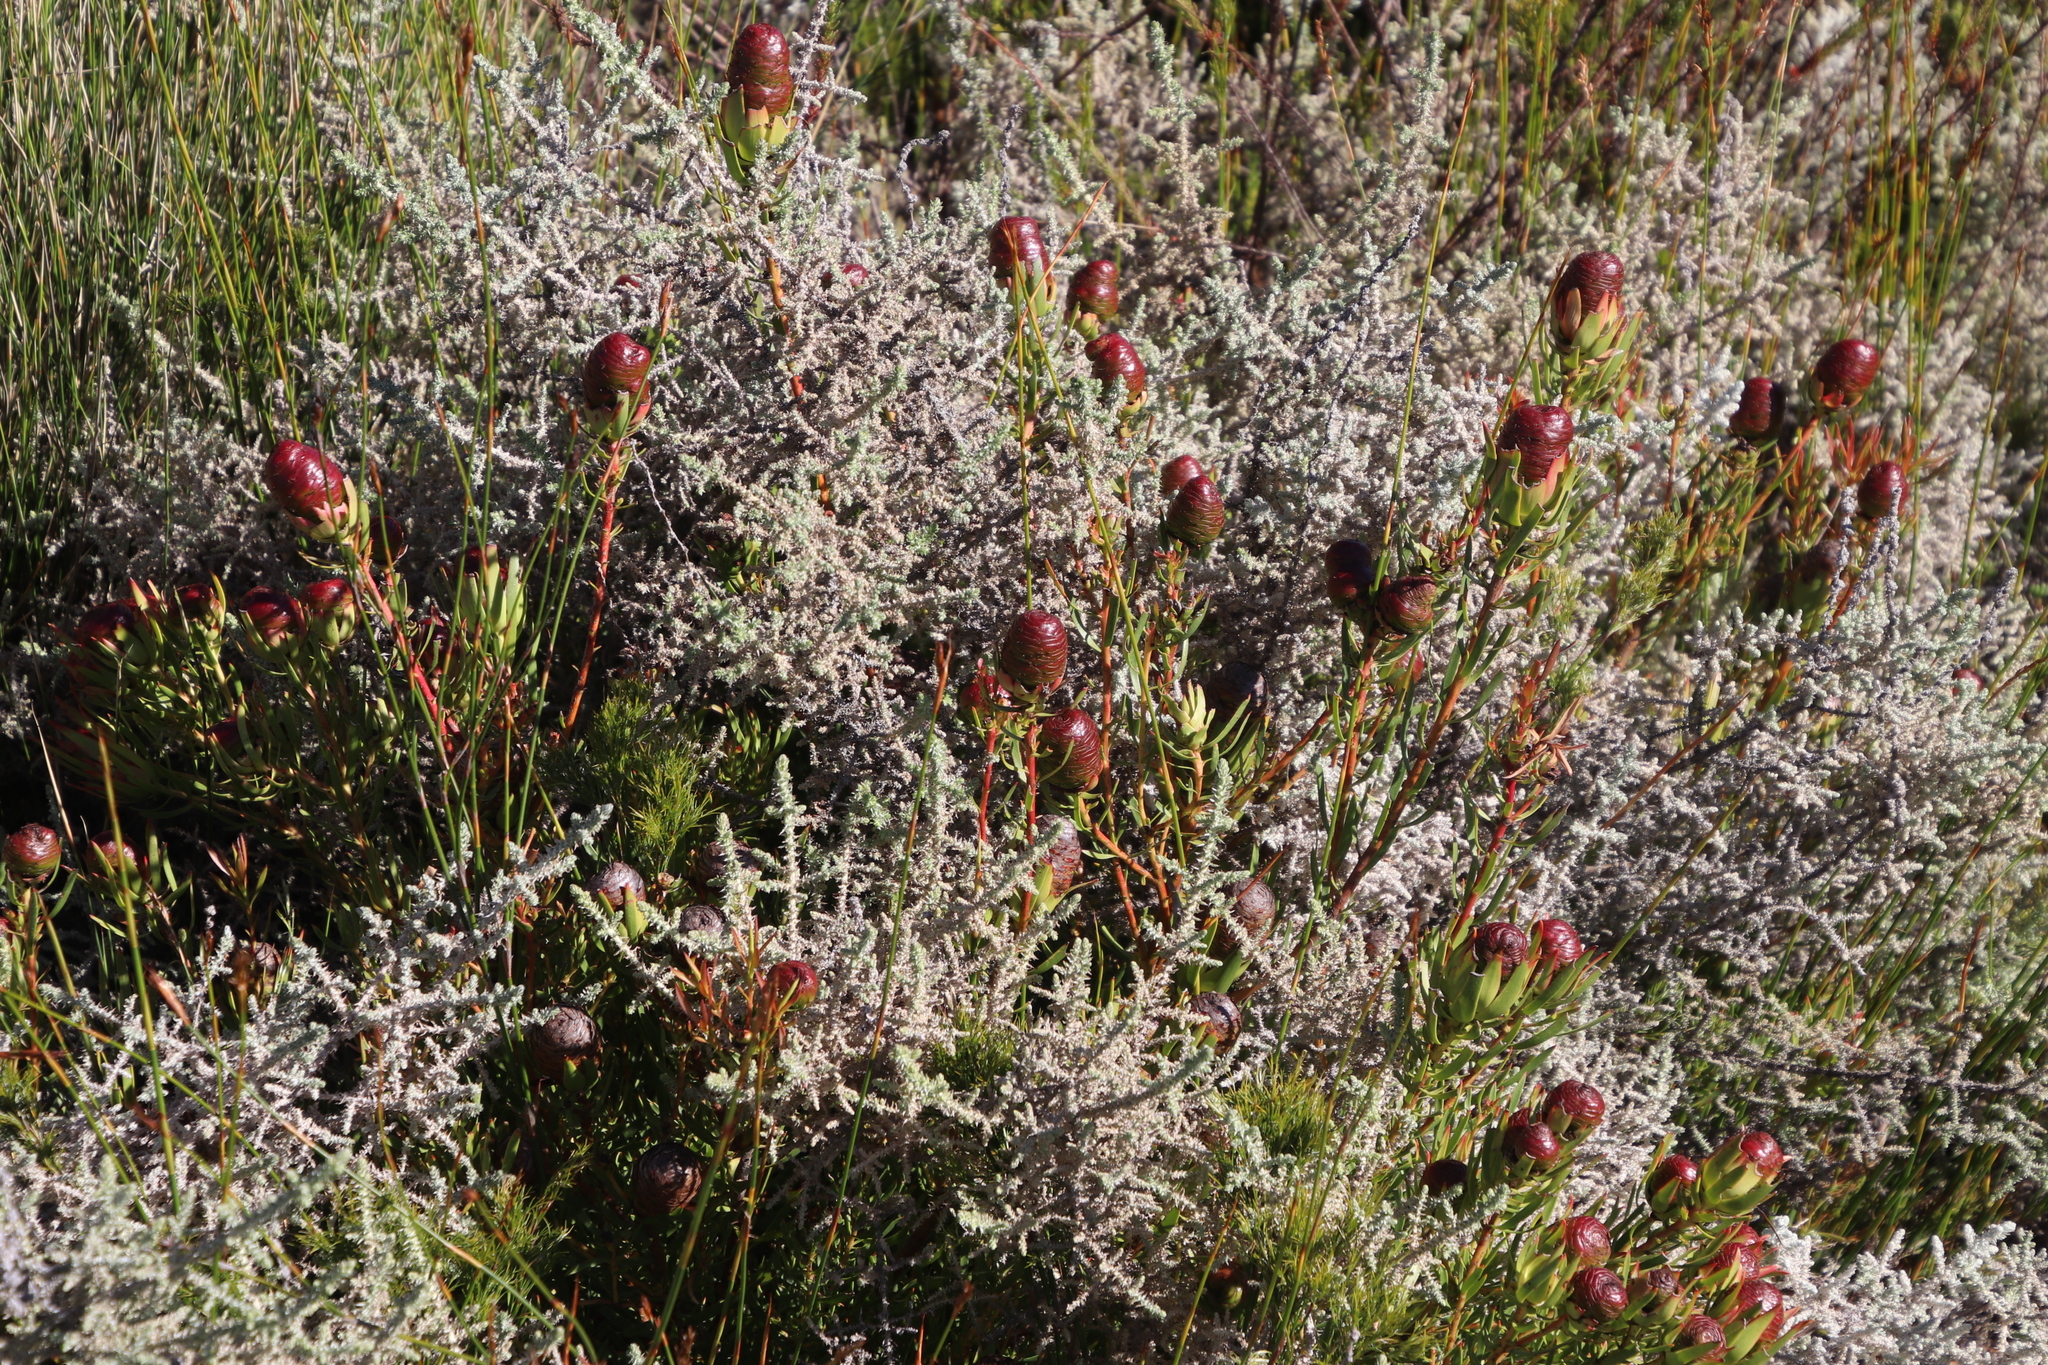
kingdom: Plantae
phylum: Tracheophyta
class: Magnoliopsida
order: Proteales
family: Proteaceae
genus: Leucadendron
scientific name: Leucadendron spissifolium
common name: Spear-leaf conebush
